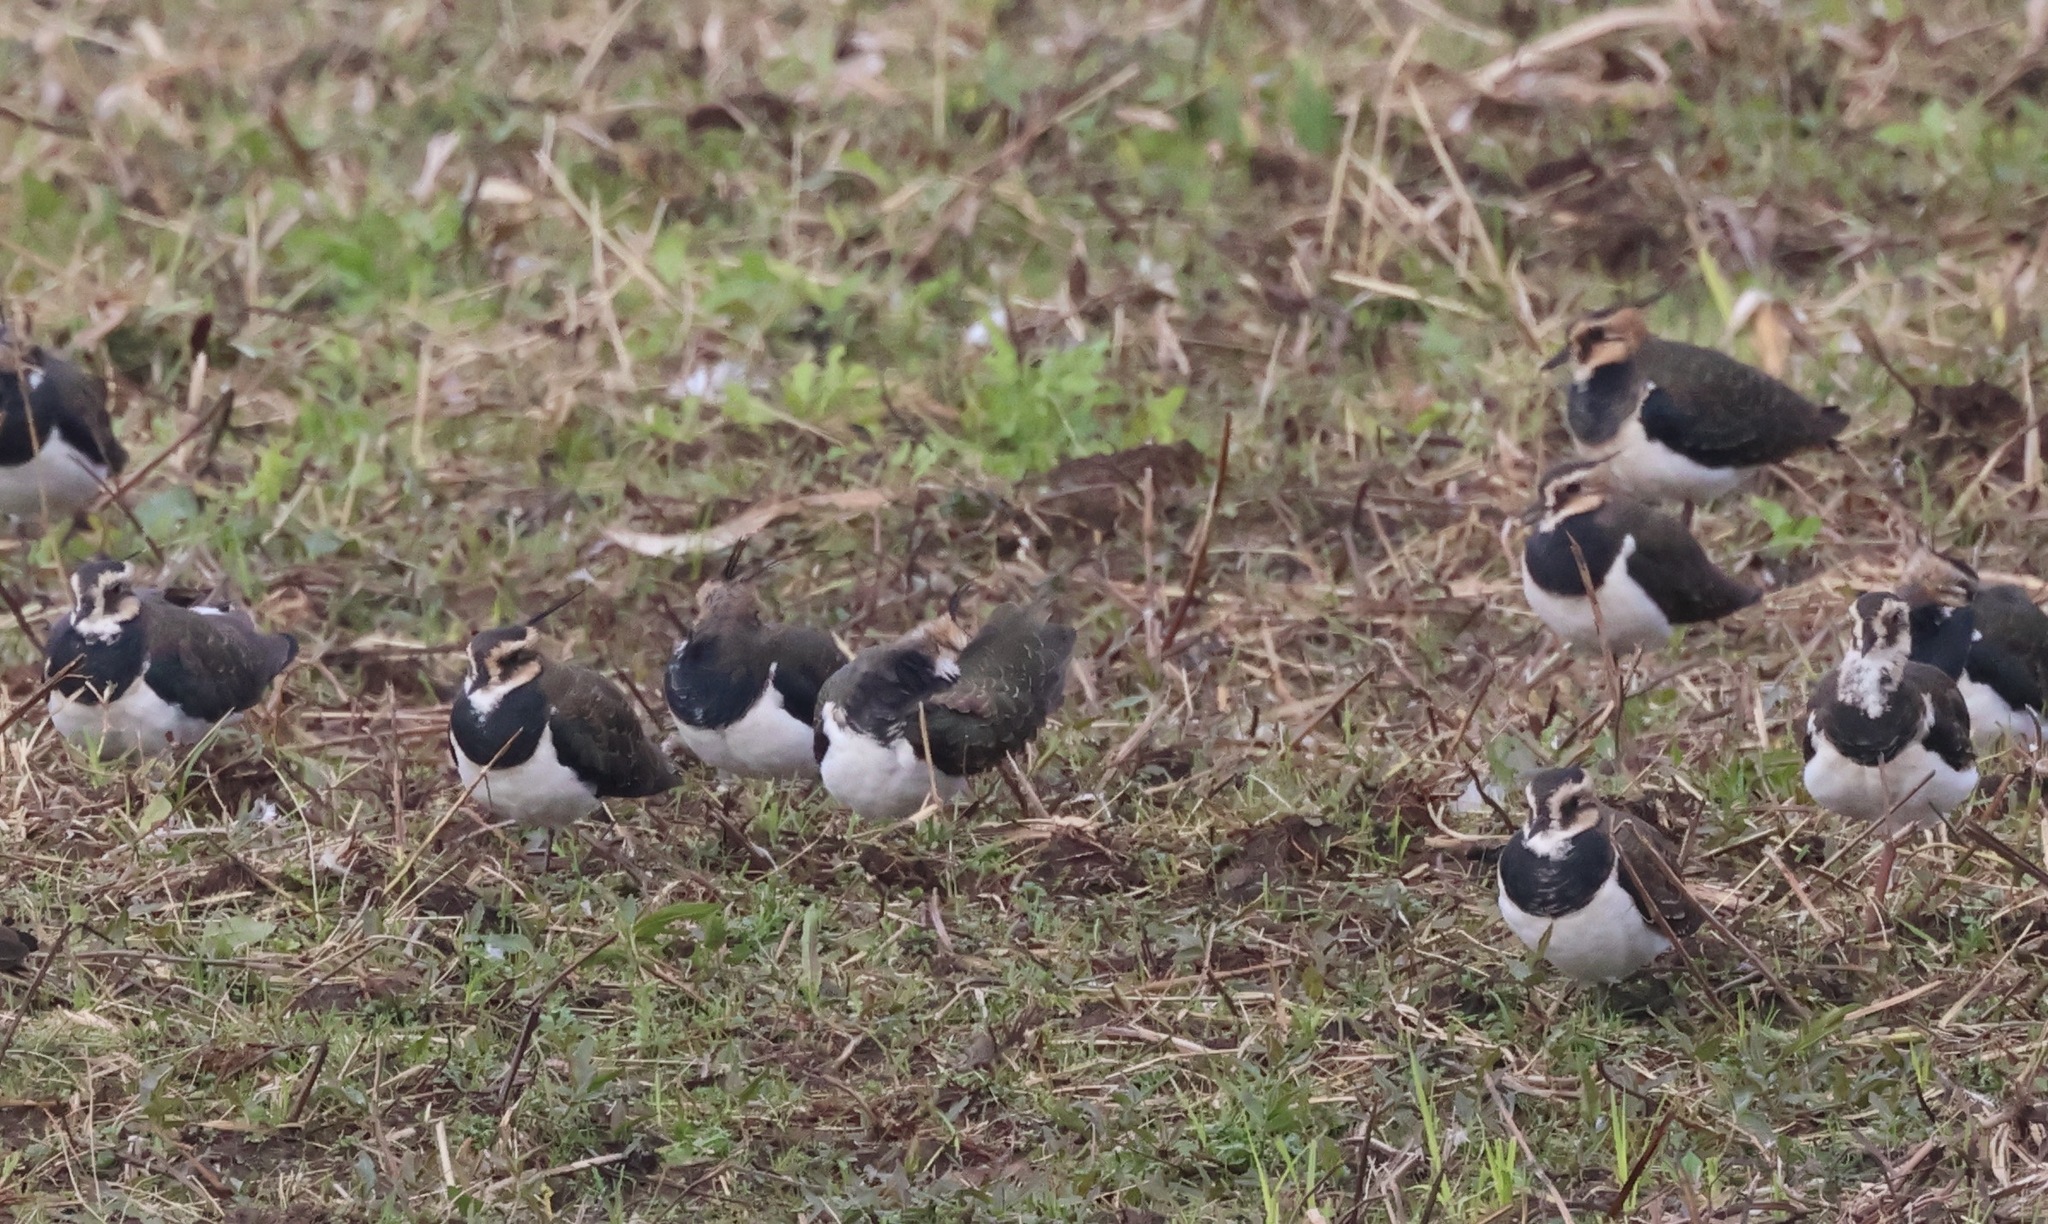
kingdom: Animalia
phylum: Chordata
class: Aves
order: Charadriiformes
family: Charadriidae
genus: Vanellus
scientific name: Vanellus vanellus
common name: Northern lapwing
